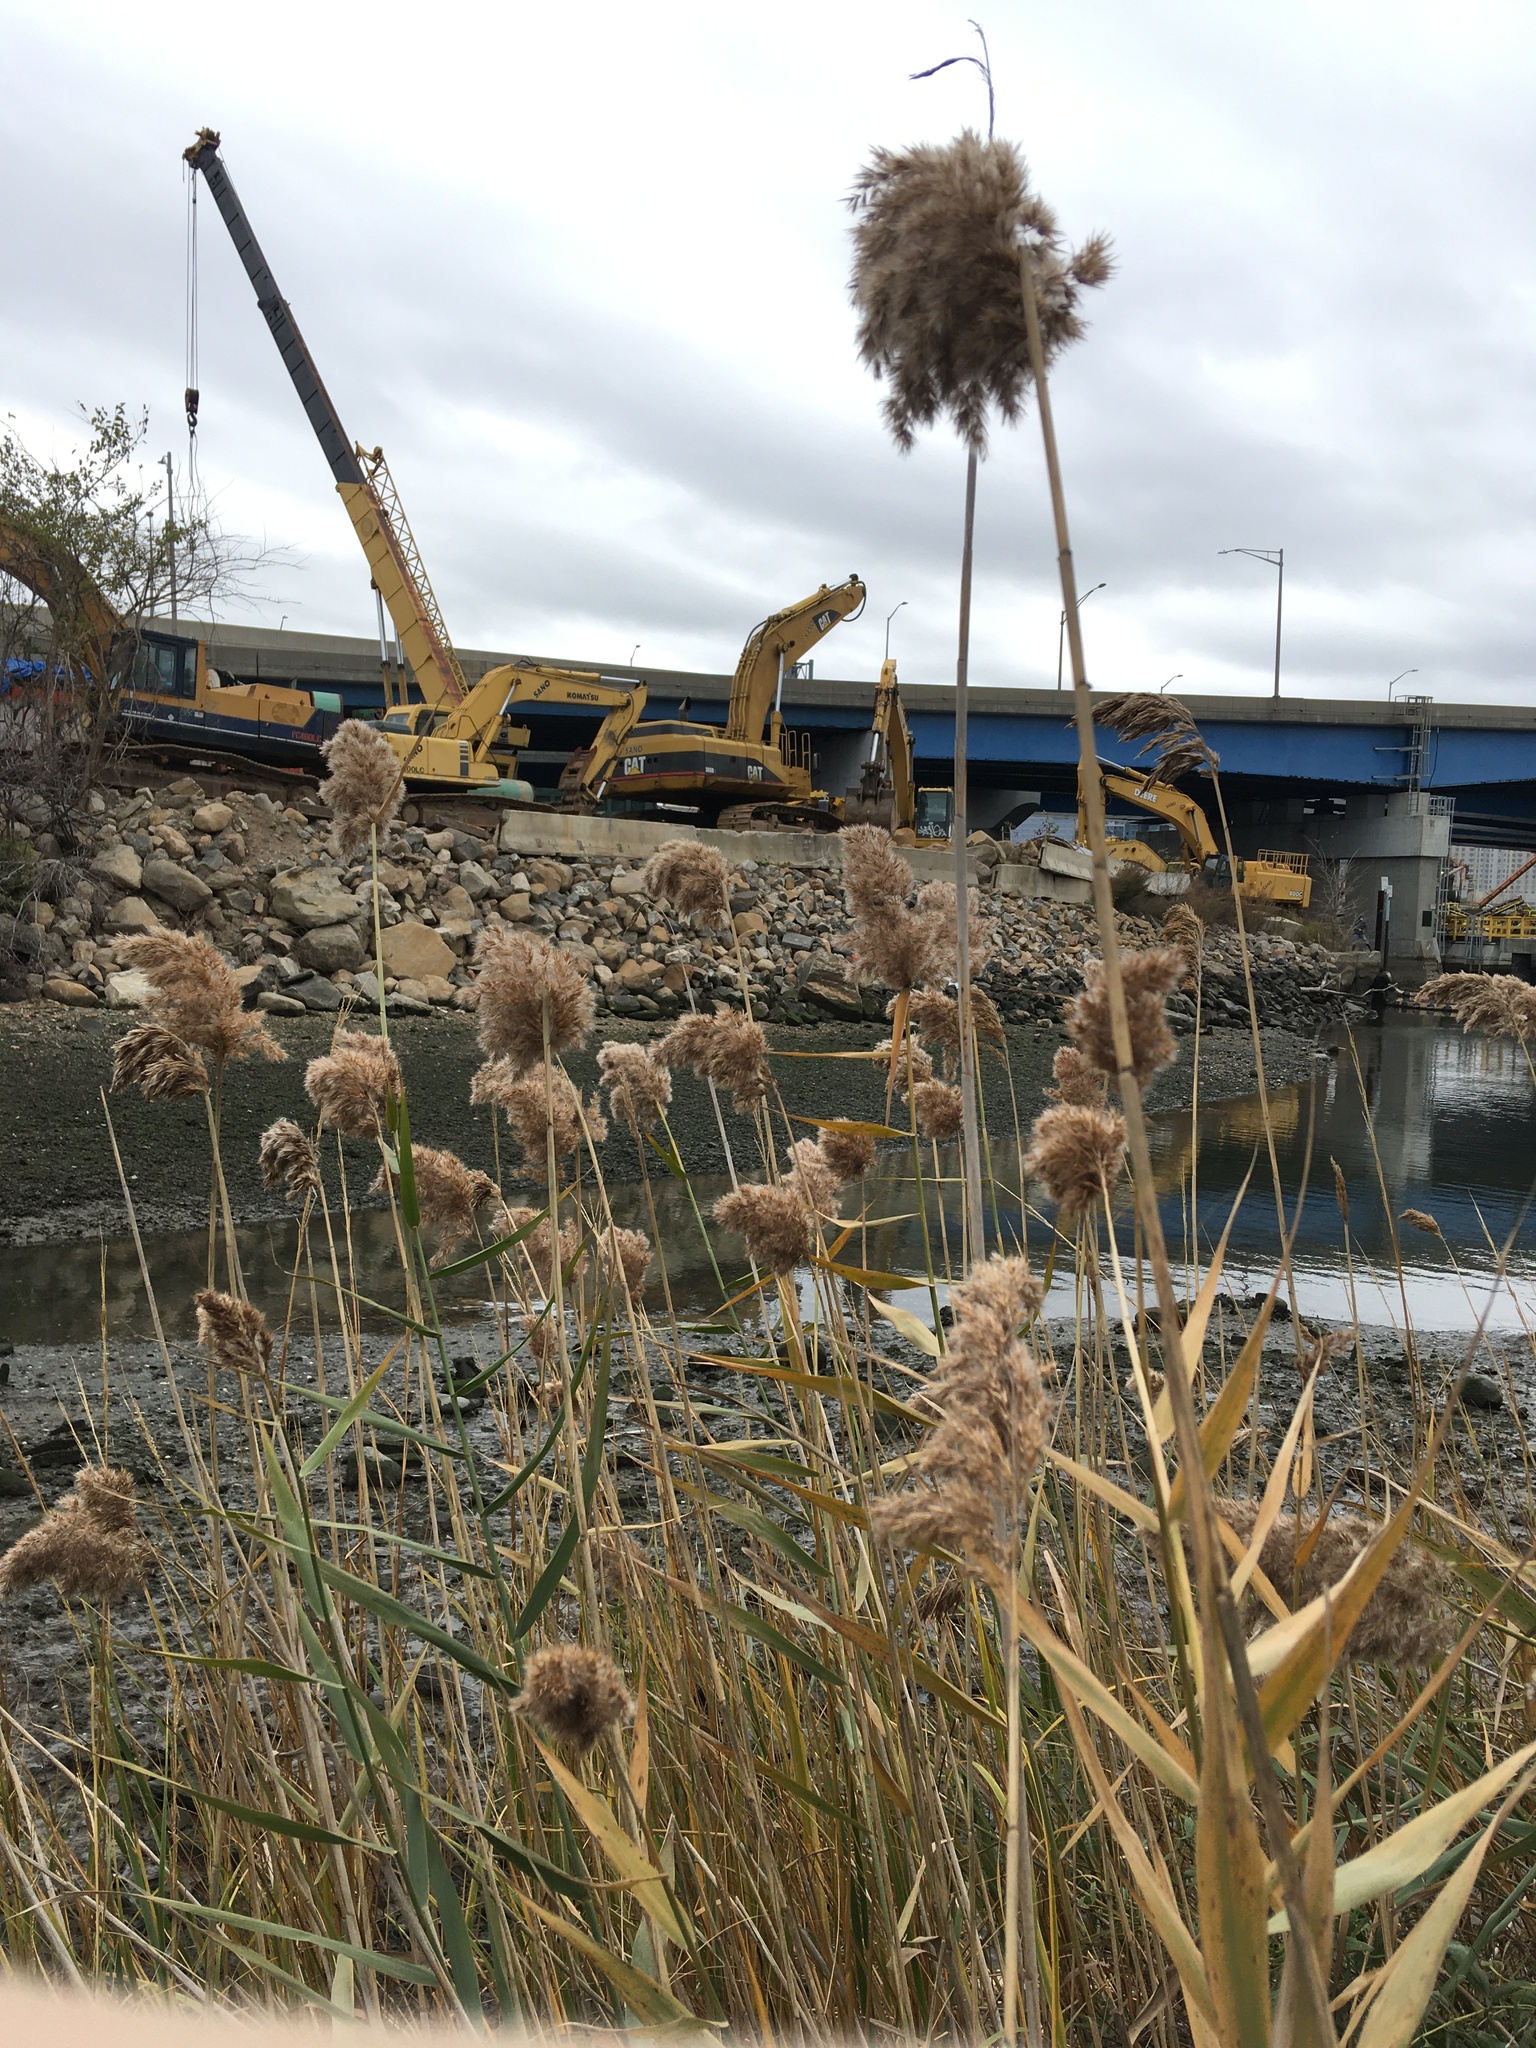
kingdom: Plantae
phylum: Tracheophyta
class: Liliopsida
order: Poales
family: Poaceae
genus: Phragmites
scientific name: Phragmites australis
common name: Common reed
